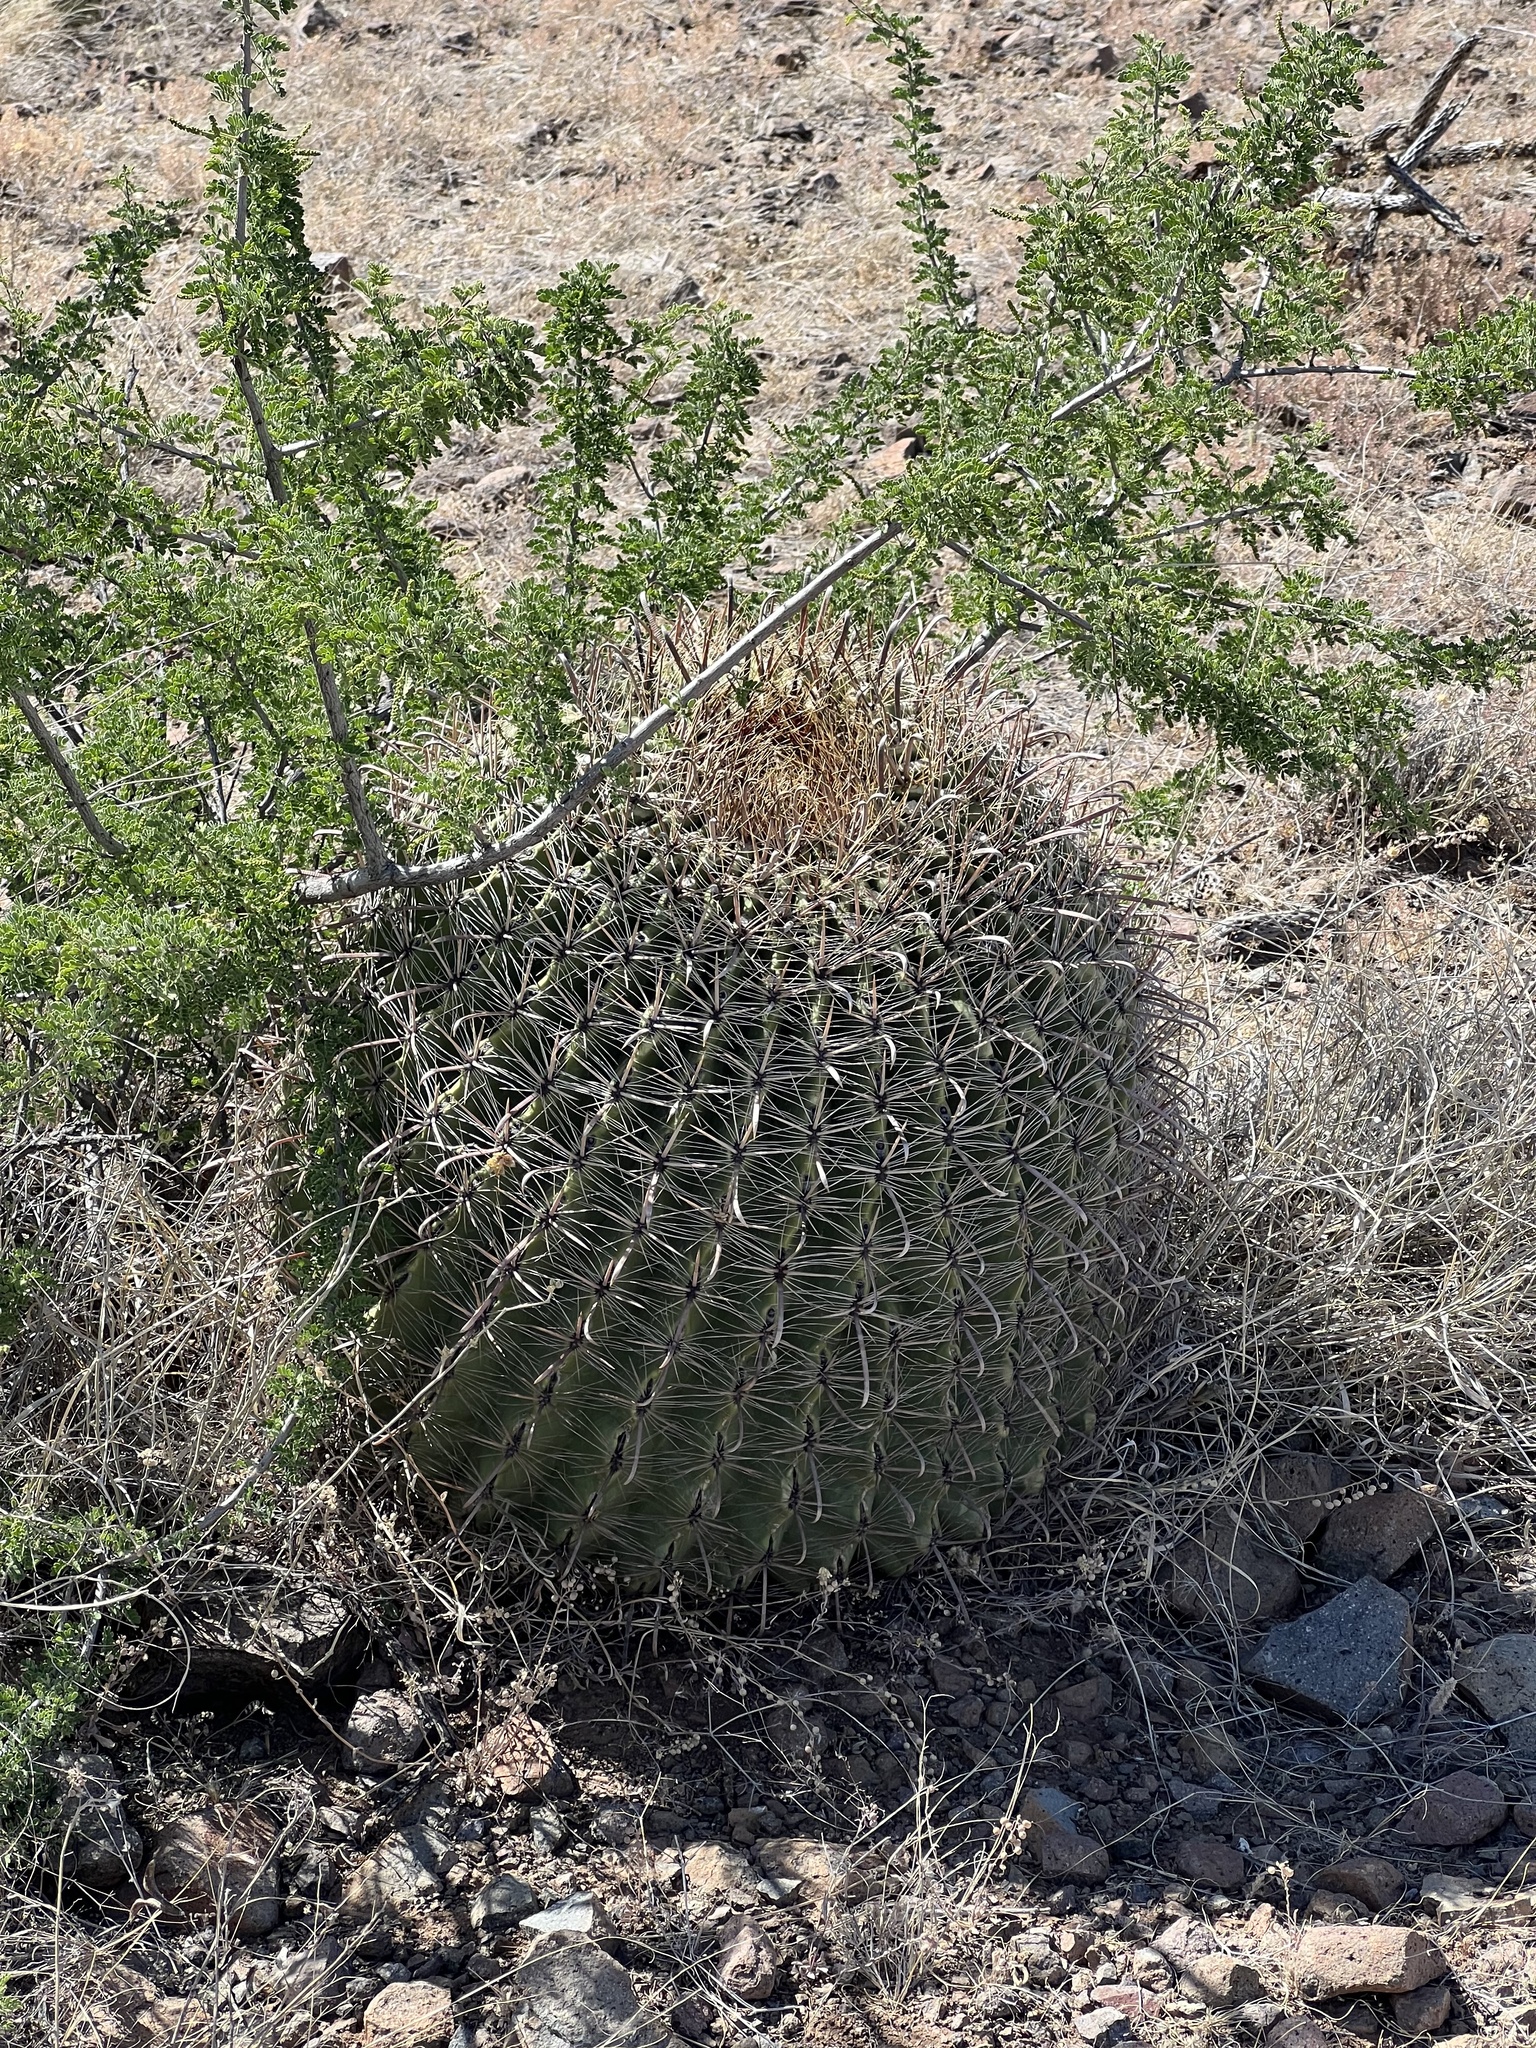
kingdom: Plantae
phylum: Tracheophyta
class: Magnoliopsida
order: Caryophyllales
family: Cactaceae
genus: Ferocactus
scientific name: Ferocactus wislizeni
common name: Candy barrel cactus
